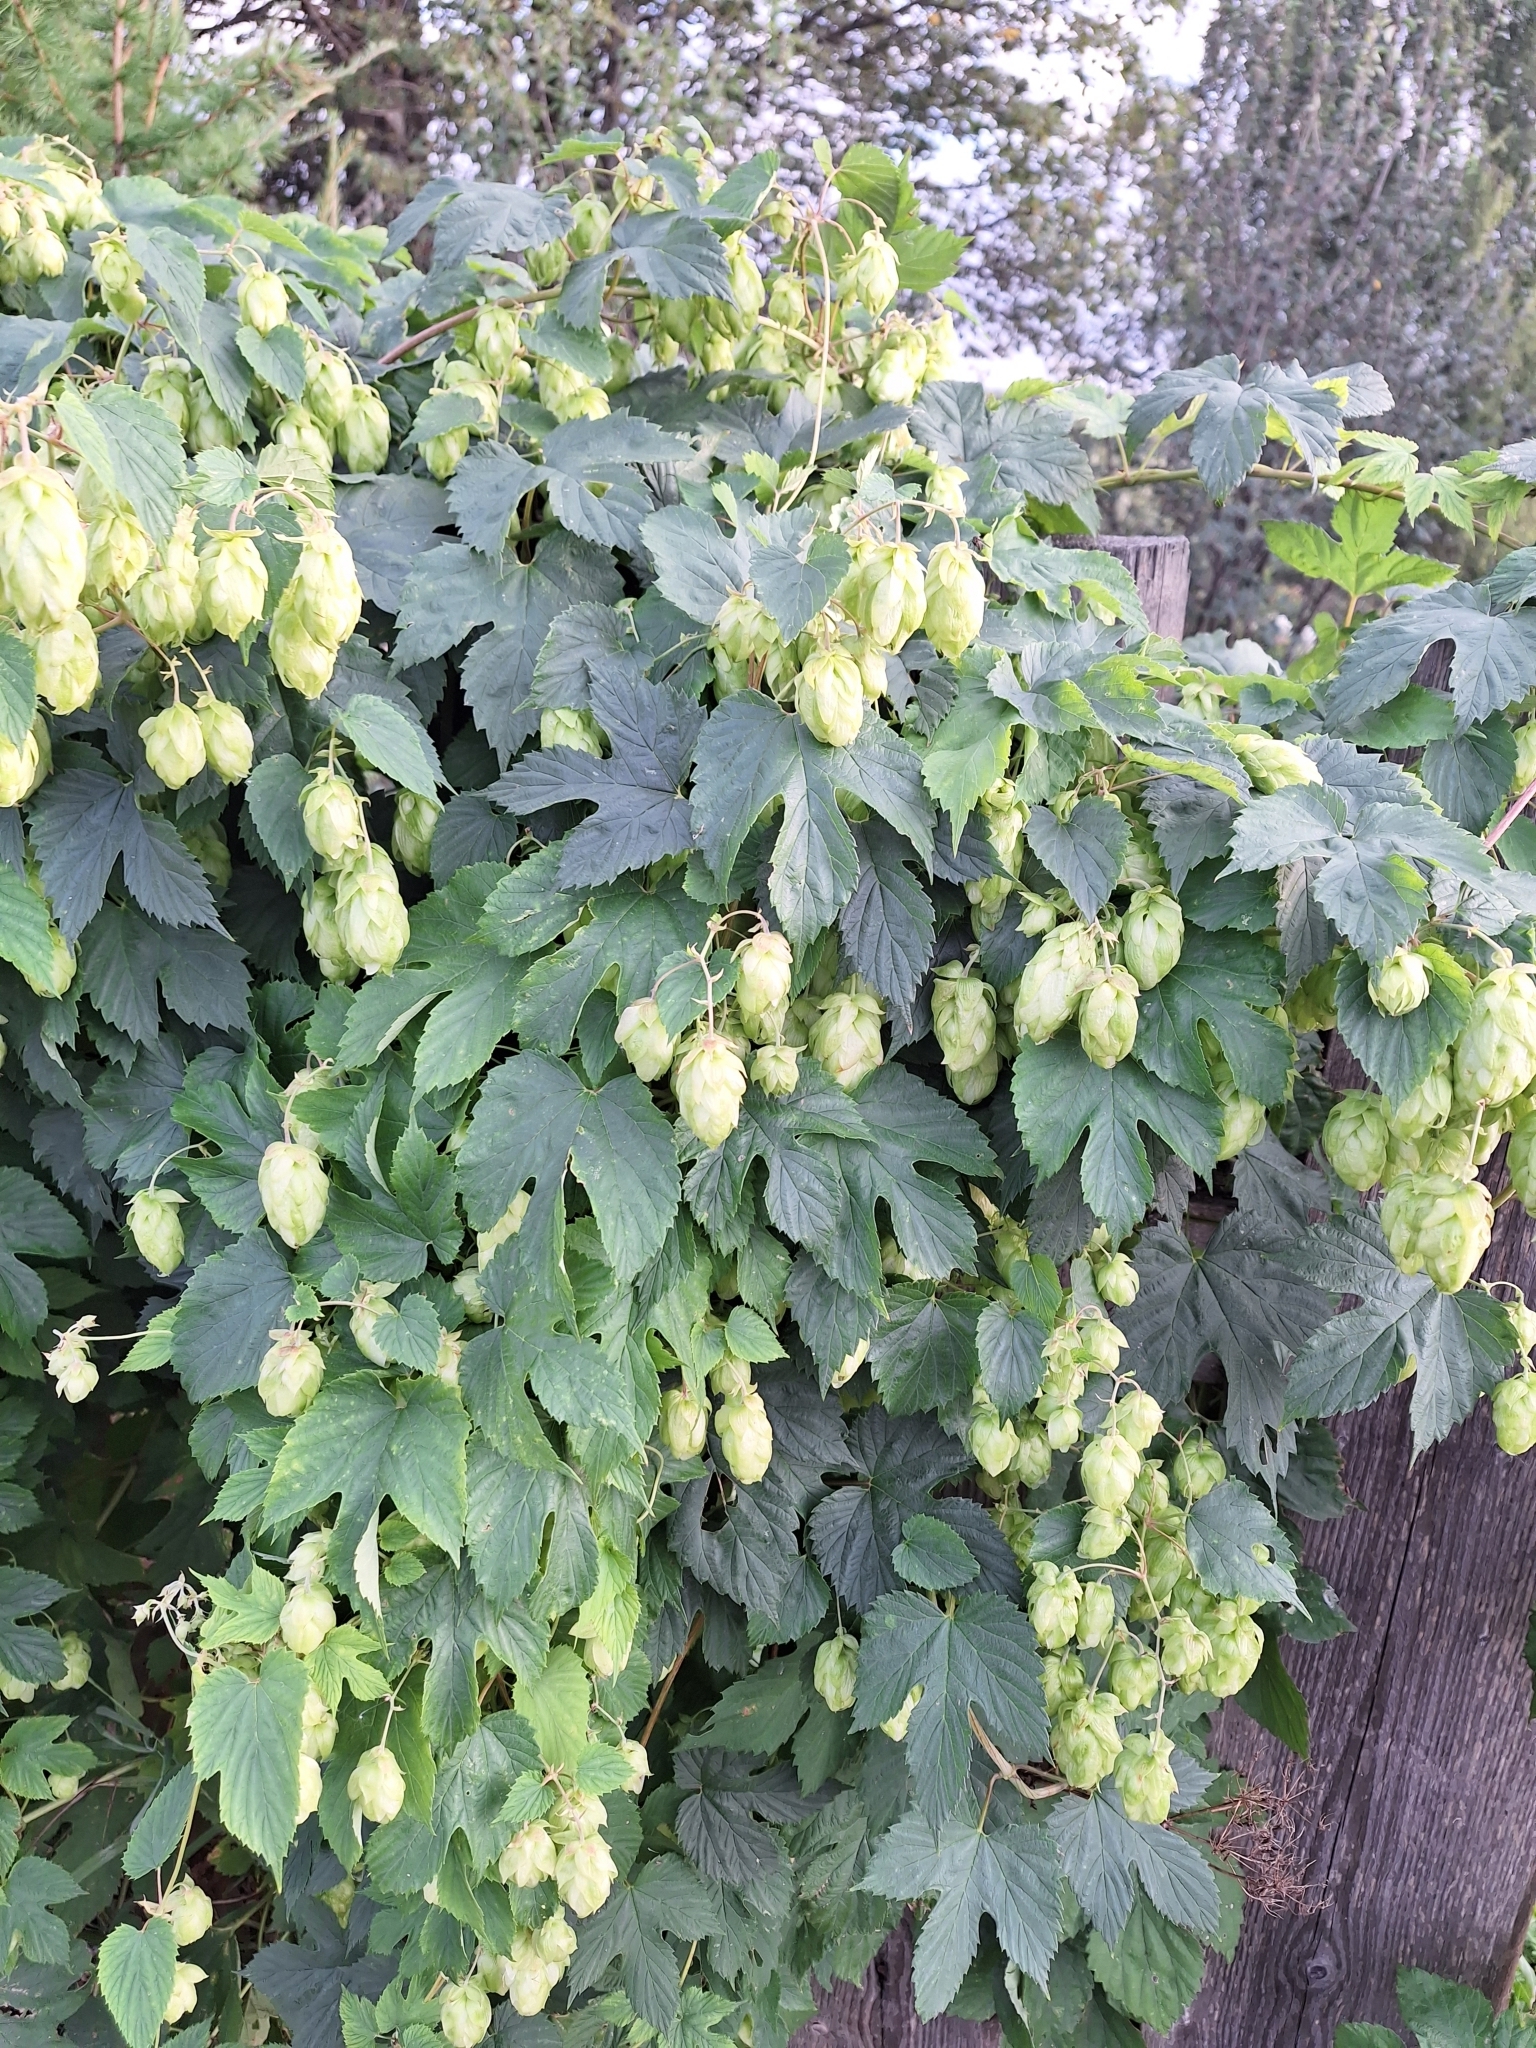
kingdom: Plantae
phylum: Tracheophyta
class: Magnoliopsida
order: Rosales
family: Cannabaceae
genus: Humulus
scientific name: Humulus lupulus
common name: Hop
